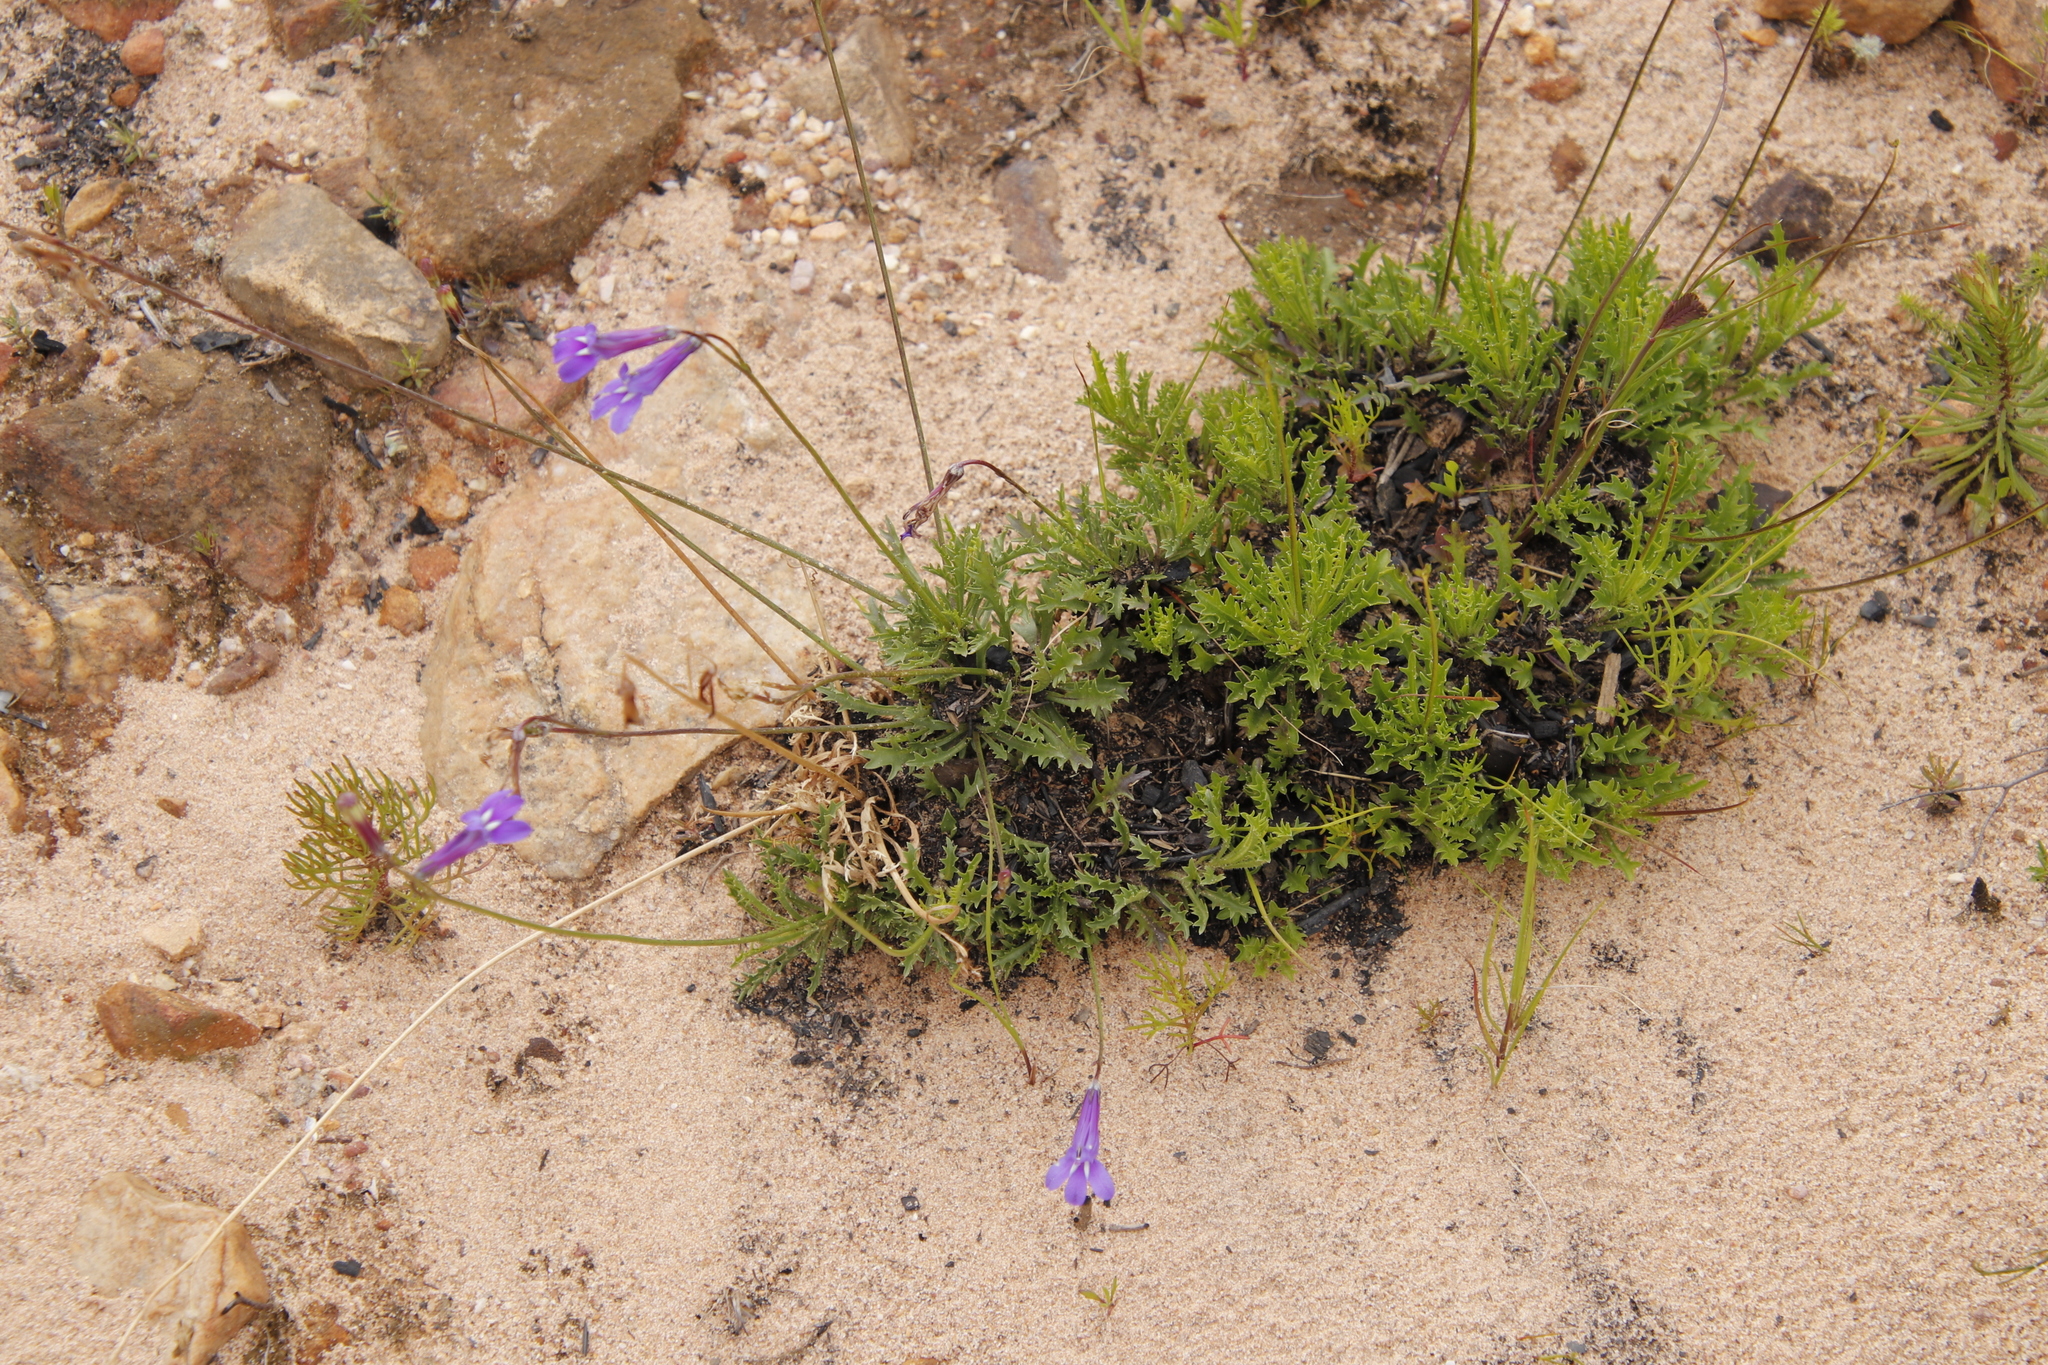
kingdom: Plantae
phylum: Tracheophyta
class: Magnoliopsida
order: Asterales
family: Campanulaceae
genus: Lobelia
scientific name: Lobelia coronopifolia
